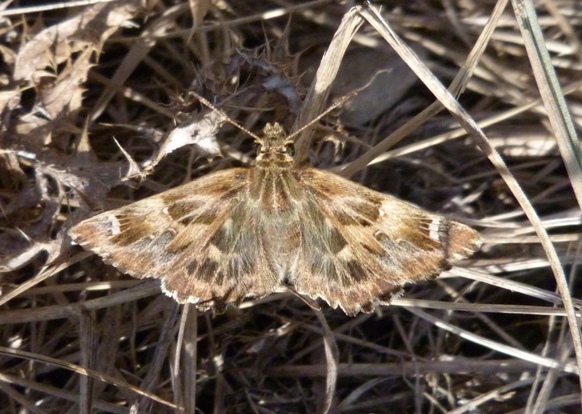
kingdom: Animalia
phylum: Arthropoda
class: Insecta
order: Lepidoptera
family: Hesperiidae
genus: Carcharodus
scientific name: Carcharodus alceae
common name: Mallow skipper
